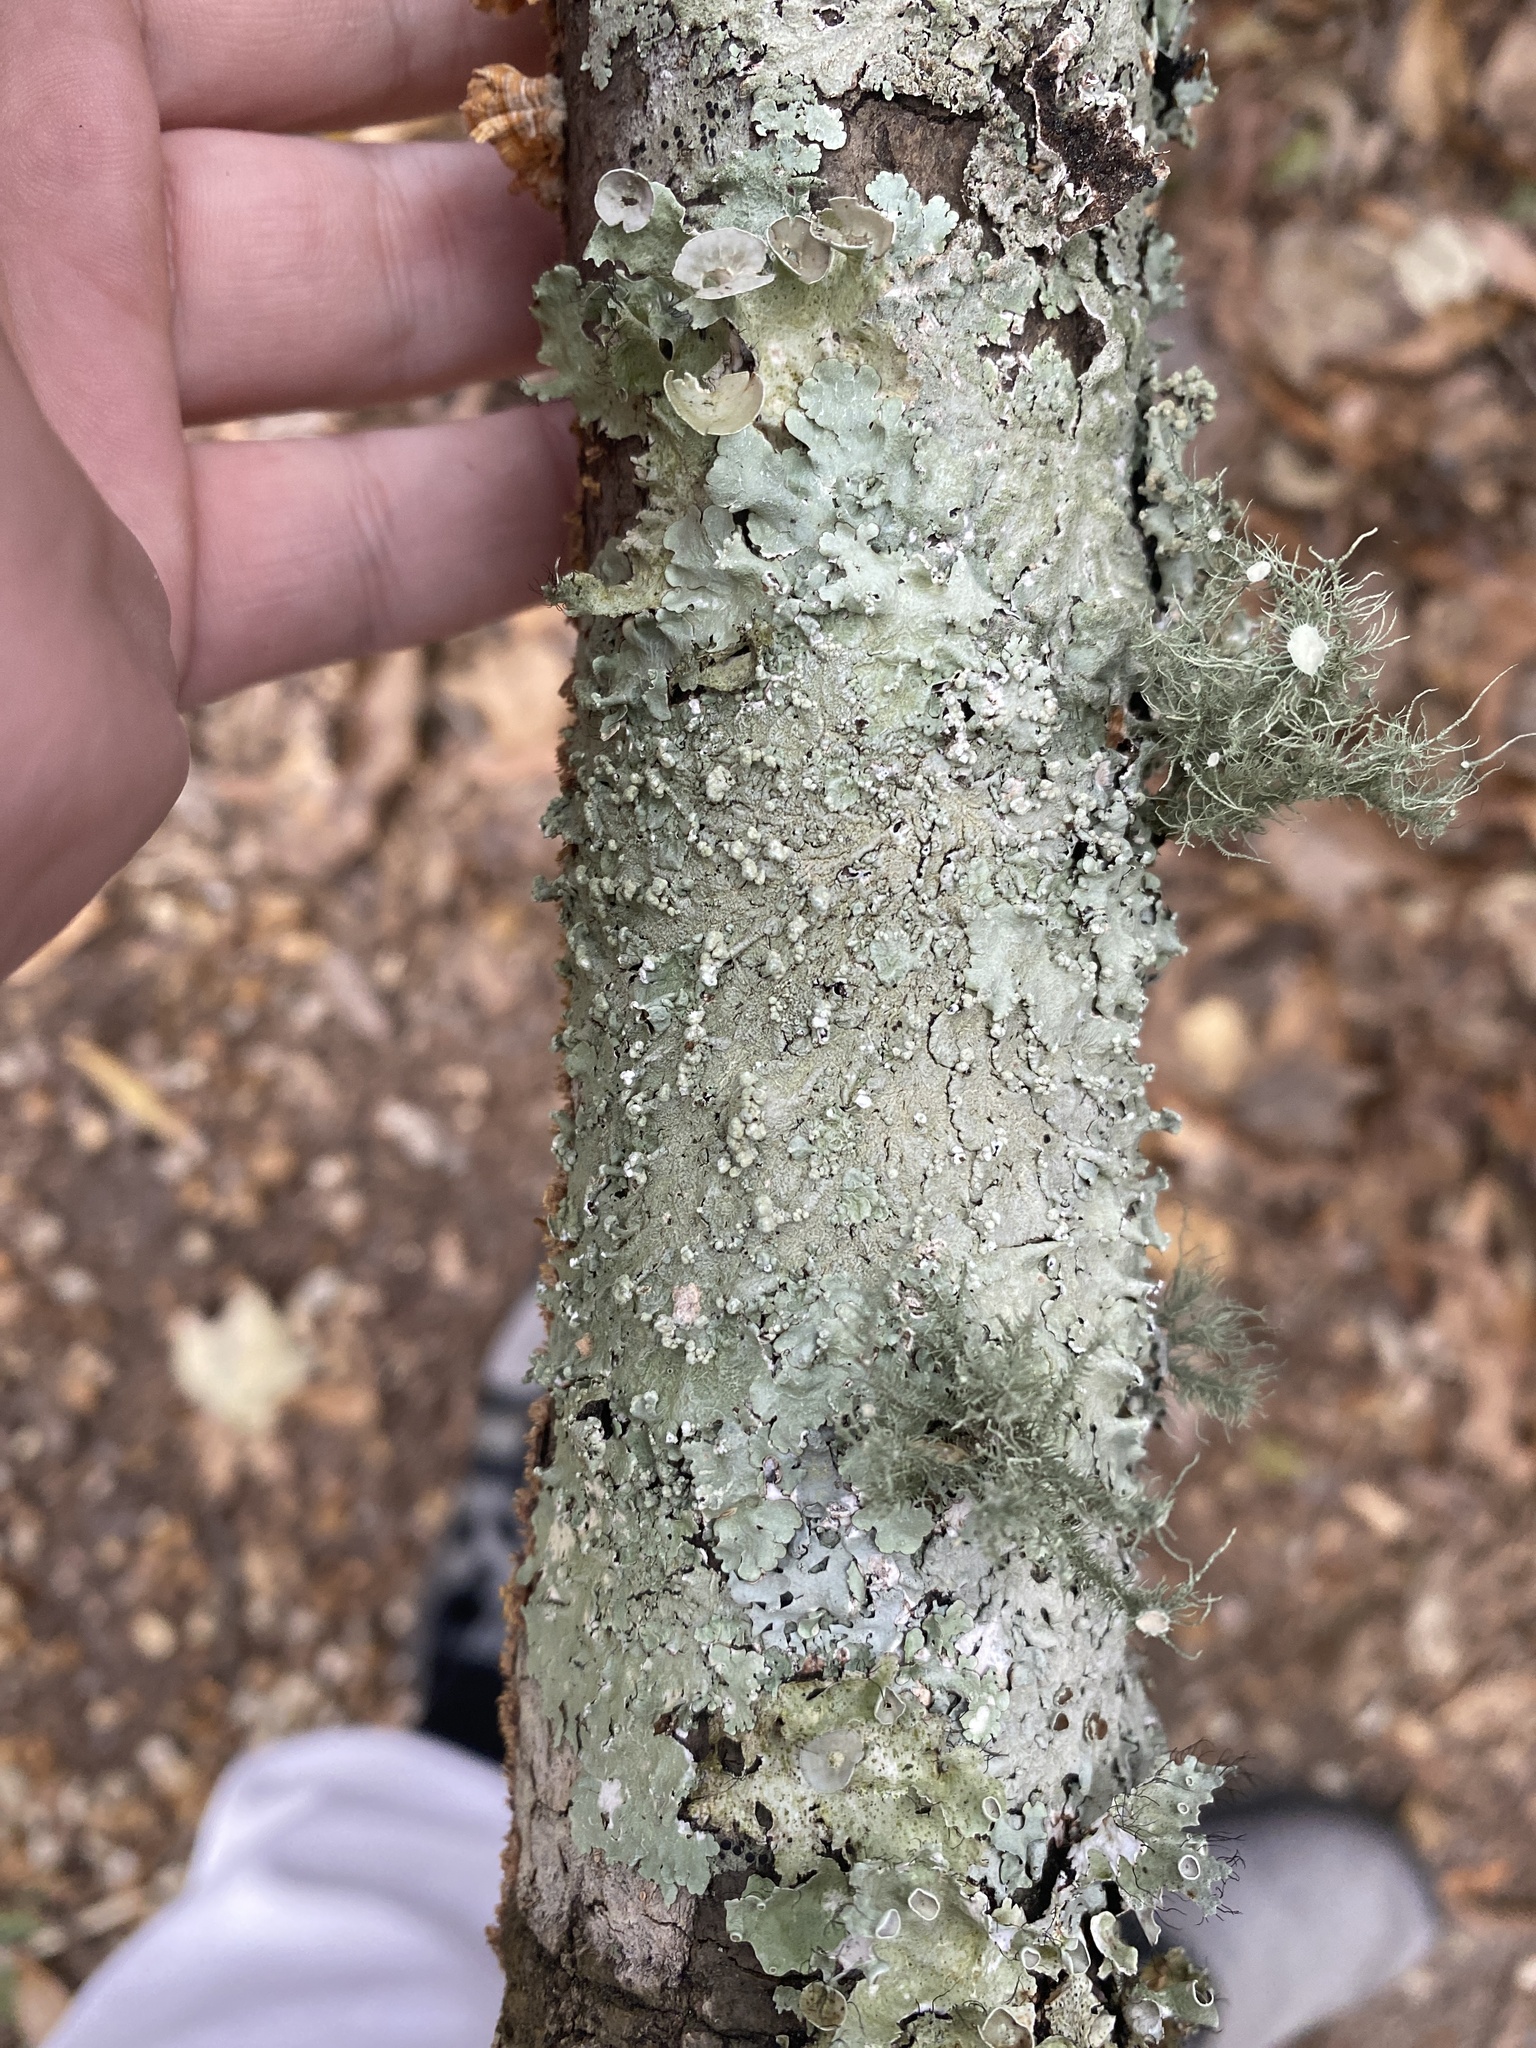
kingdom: Fungi
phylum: Ascomycota
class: Lecanoromycetes
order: Lecanorales
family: Parmeliaceae
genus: Canoparmelia
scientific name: Canoparmelia cryptochlorophaea
